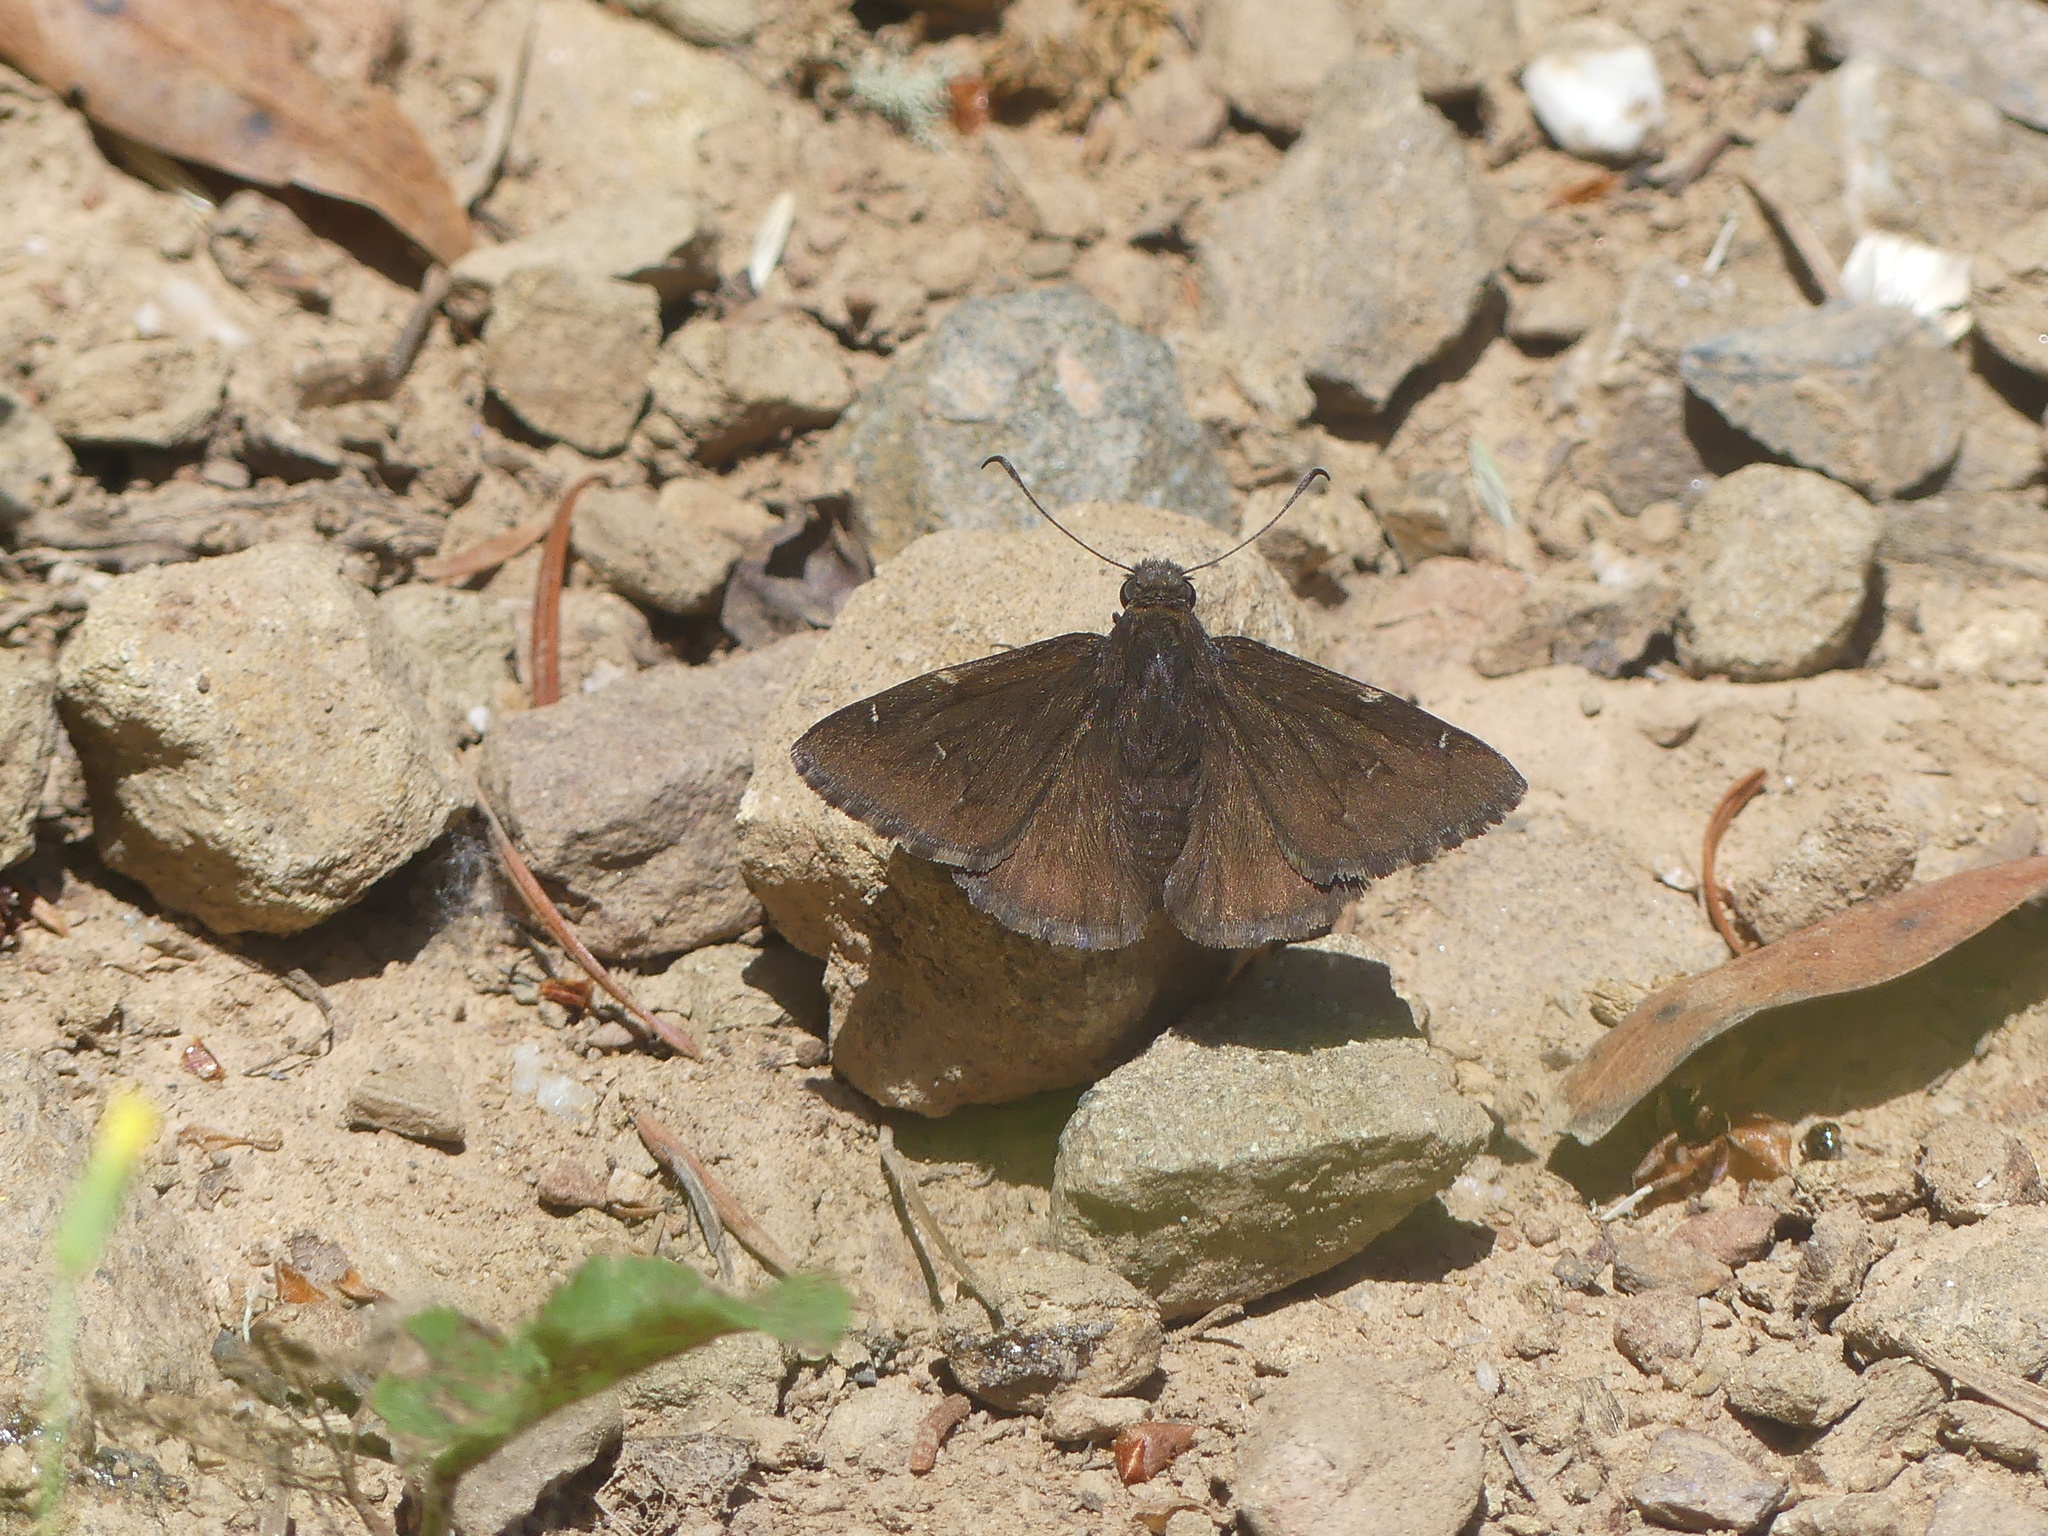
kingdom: Animalia
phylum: Arthropoda
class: Insecta
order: Lepidoptera
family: Hesperiidae
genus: Thorybes
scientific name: Thorybes pylades
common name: Northern cloudywing
